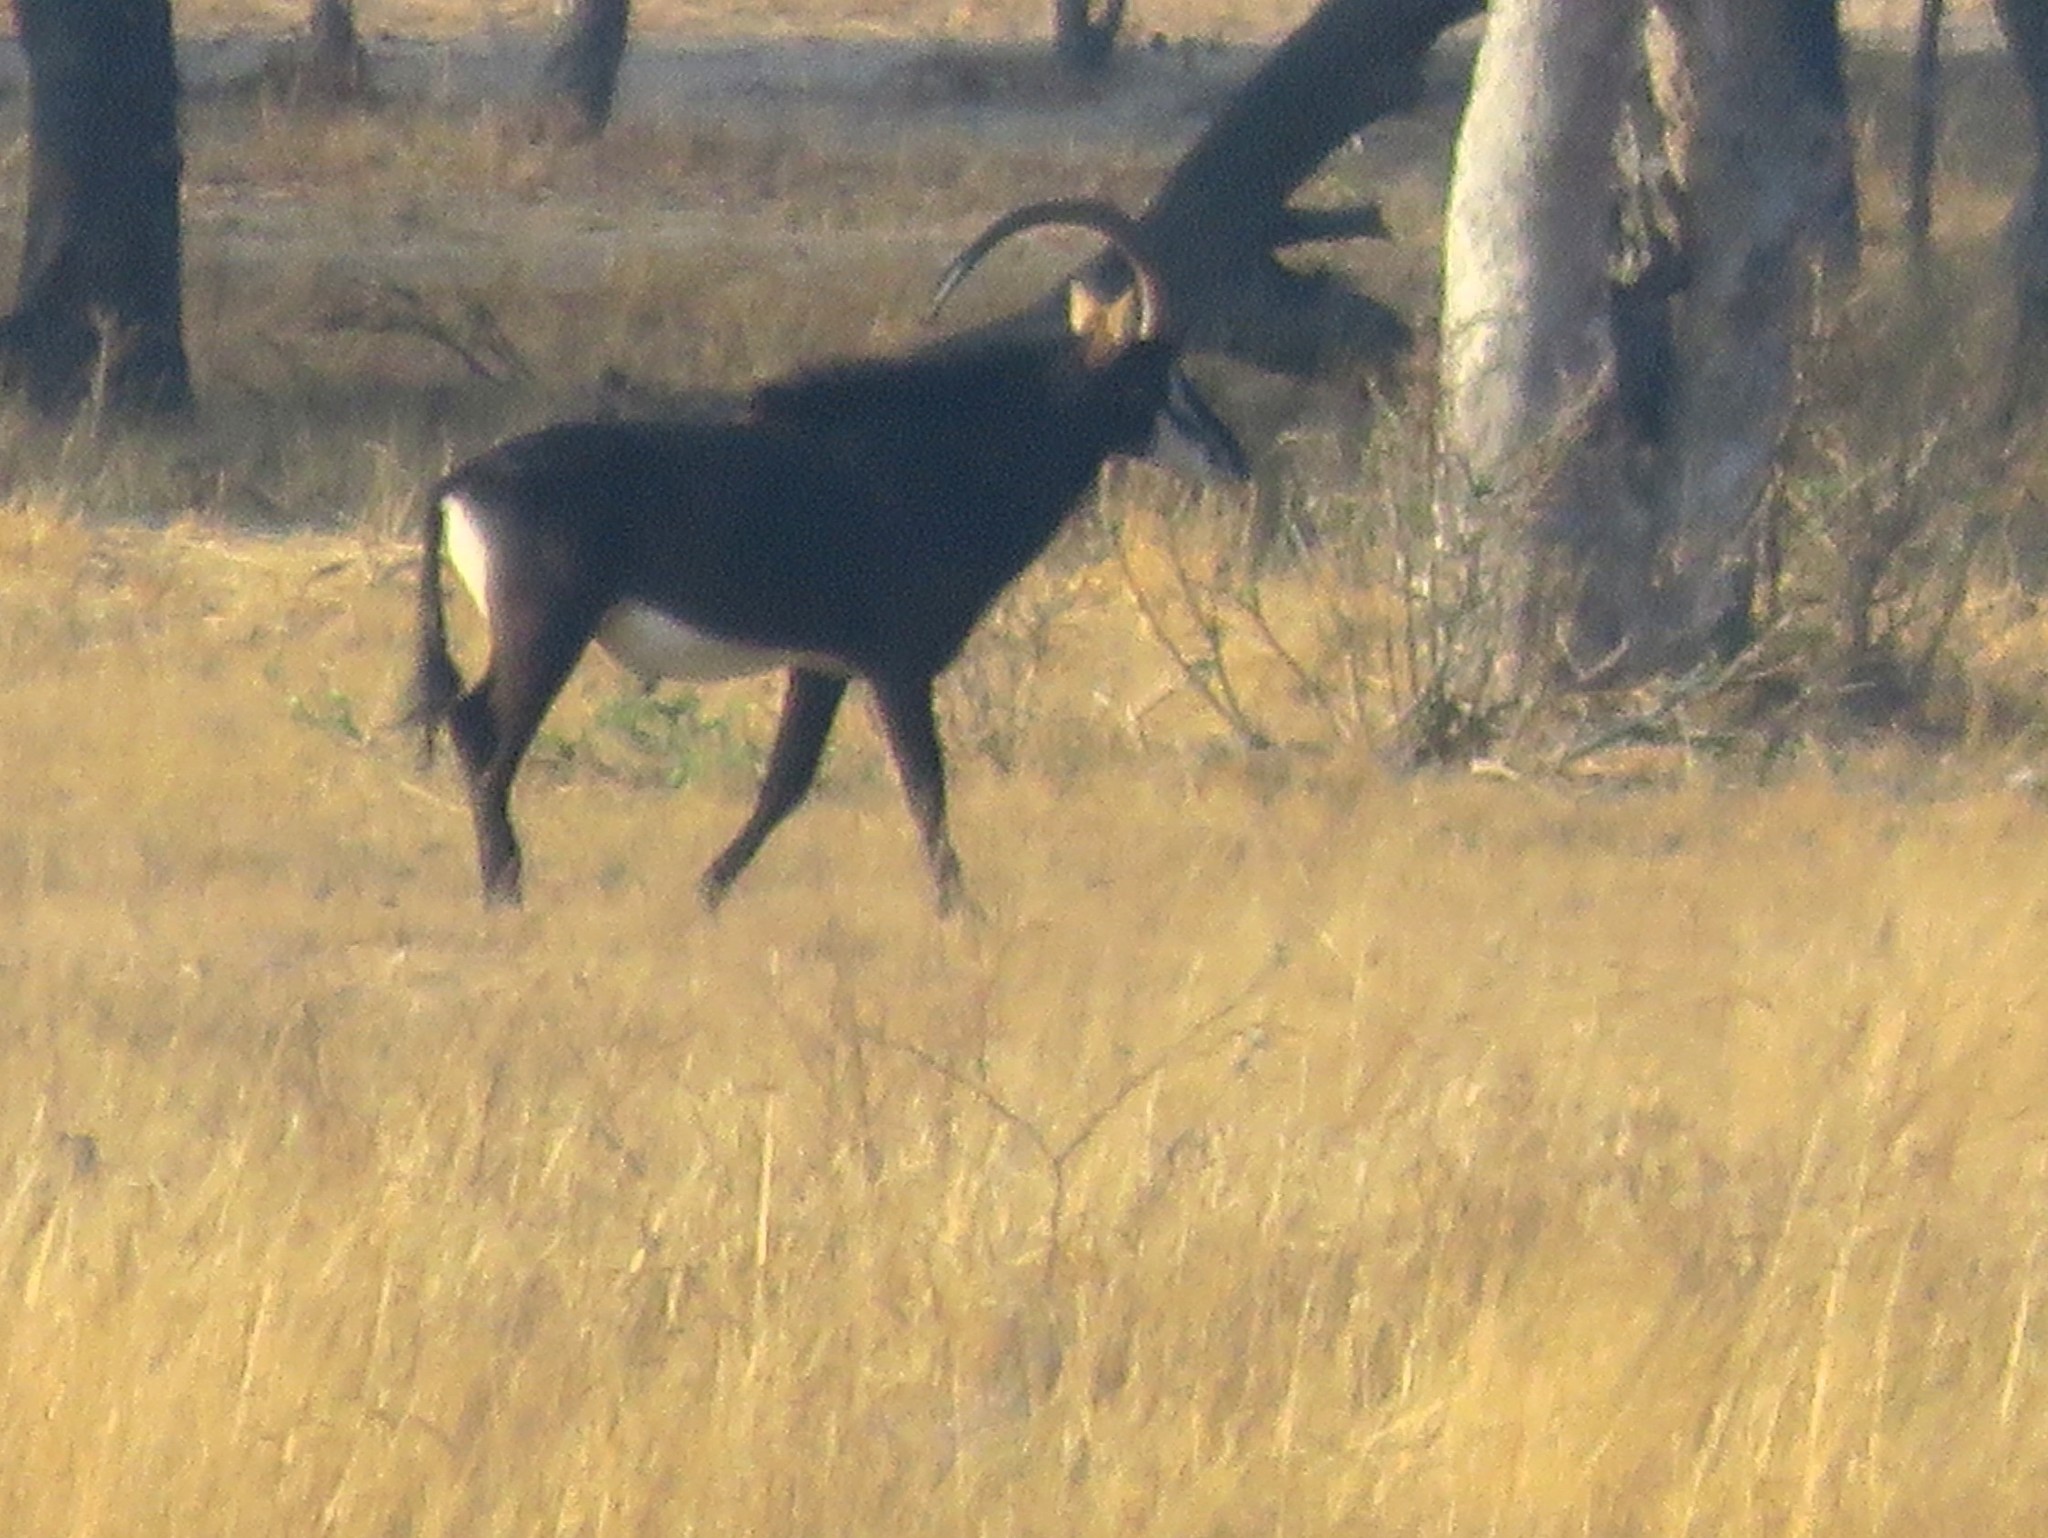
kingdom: Animalia
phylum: Chordata
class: Mammalia
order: Artiodactyla
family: Bovidae
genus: Hippotragus
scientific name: Hippotragus niger
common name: Sable antelope
